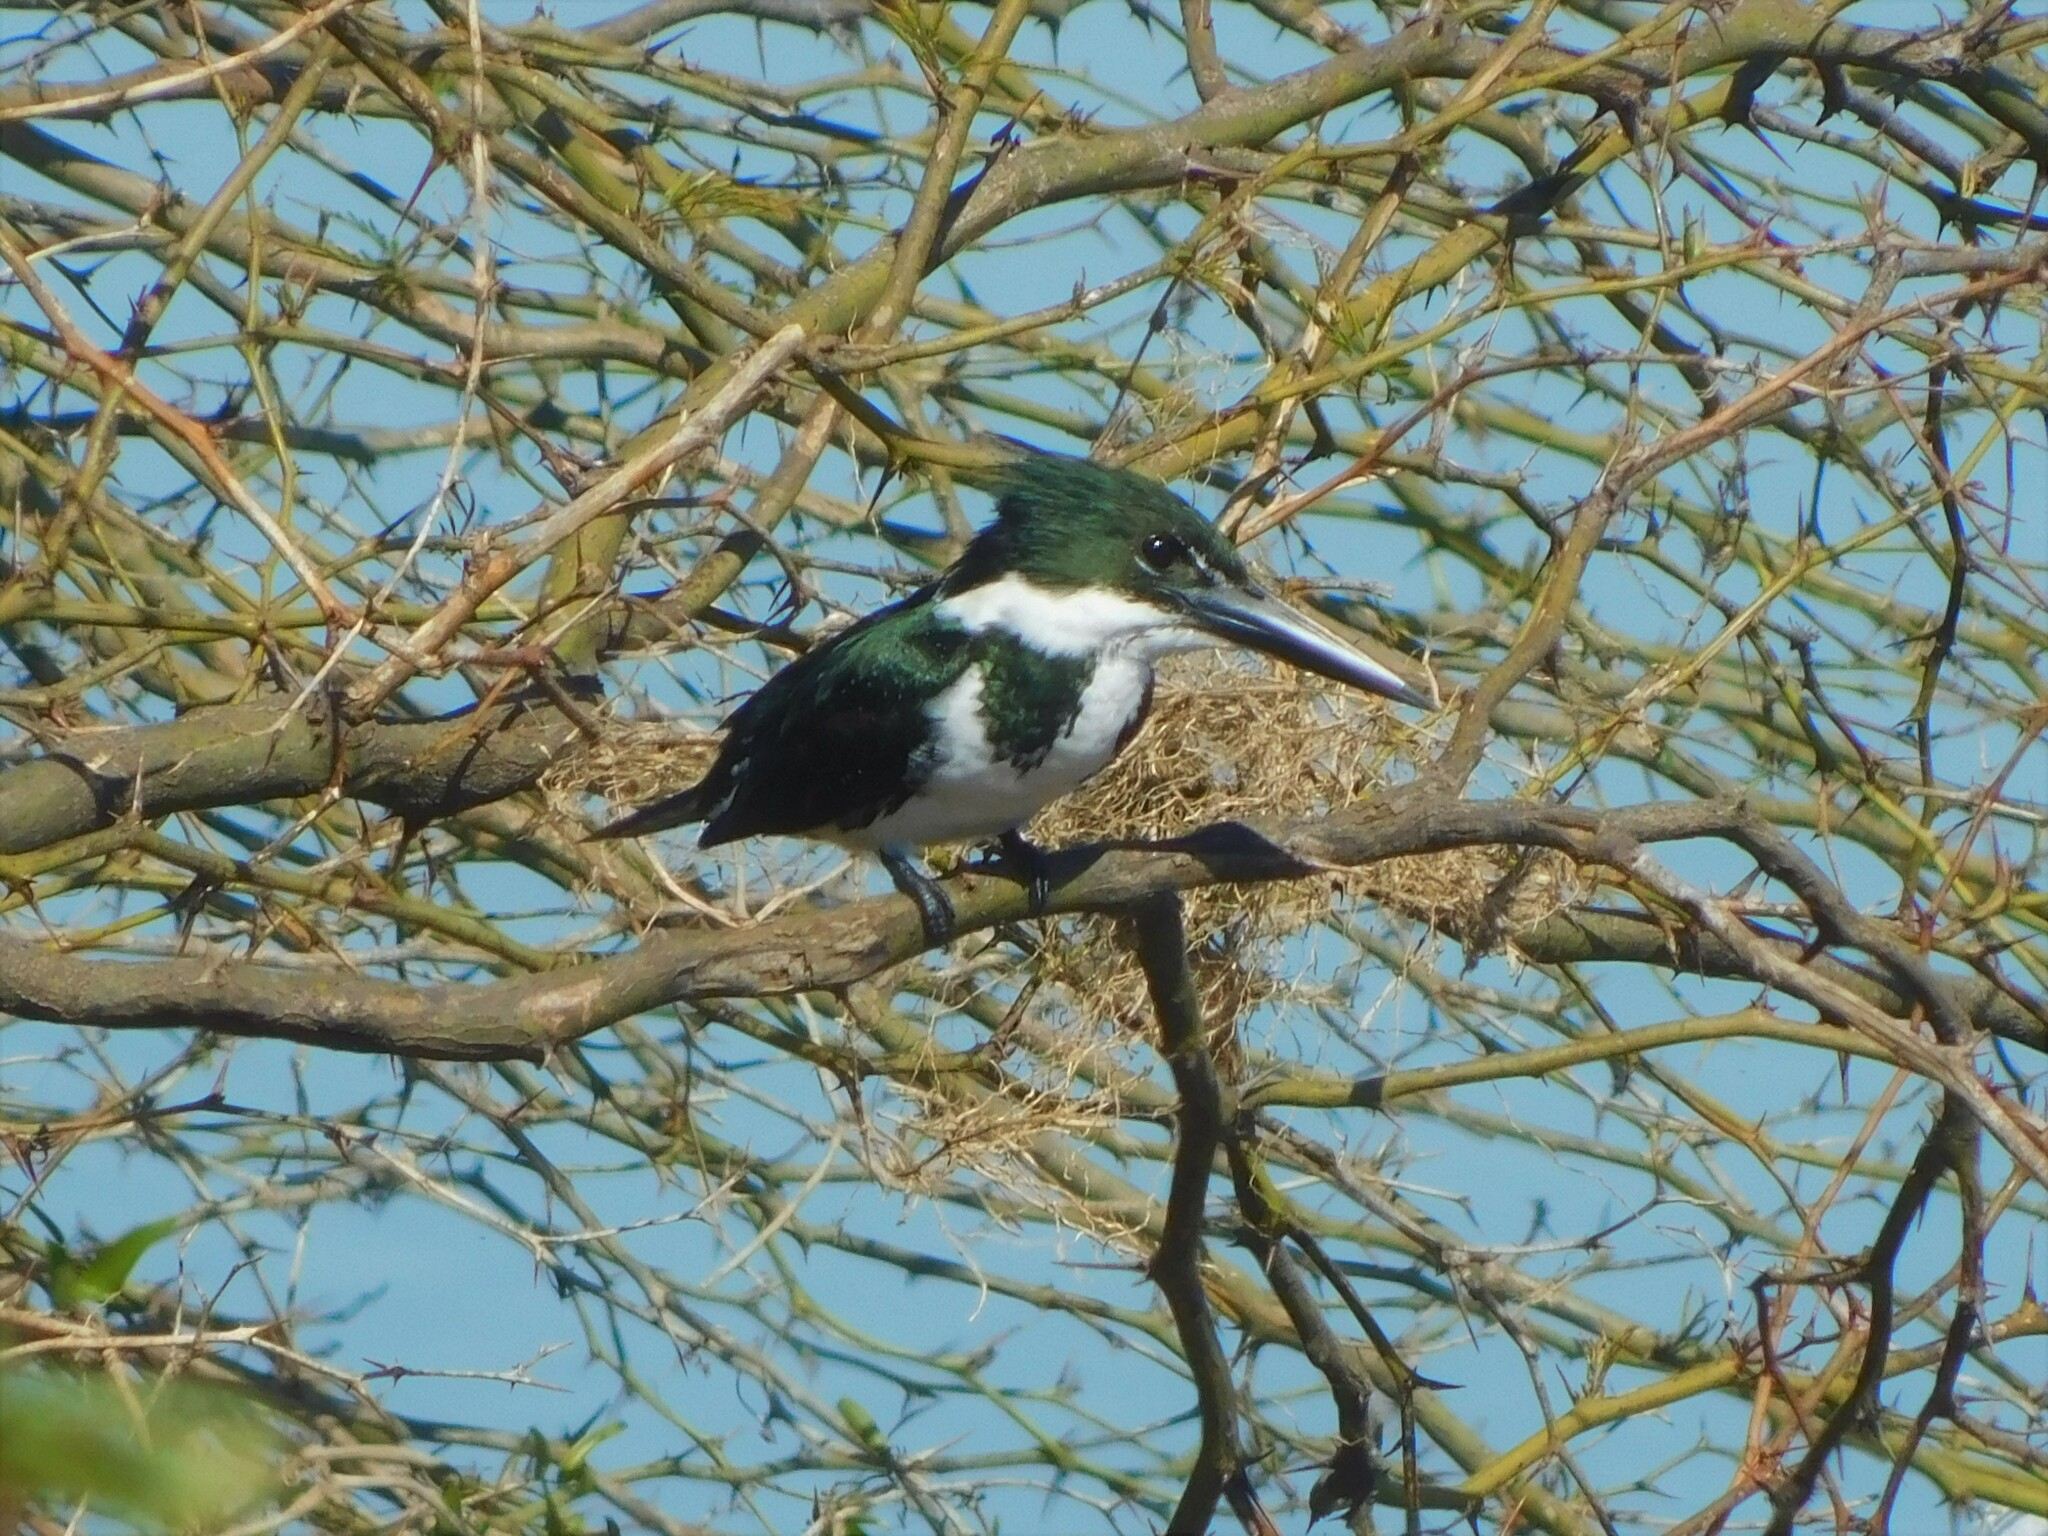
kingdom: Animalia
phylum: Chordata
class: Aves
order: Coraciiformes
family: Alcedinidae
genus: Chloroceryle
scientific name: Chloroceryle amazona
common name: Amazon kingfisher
